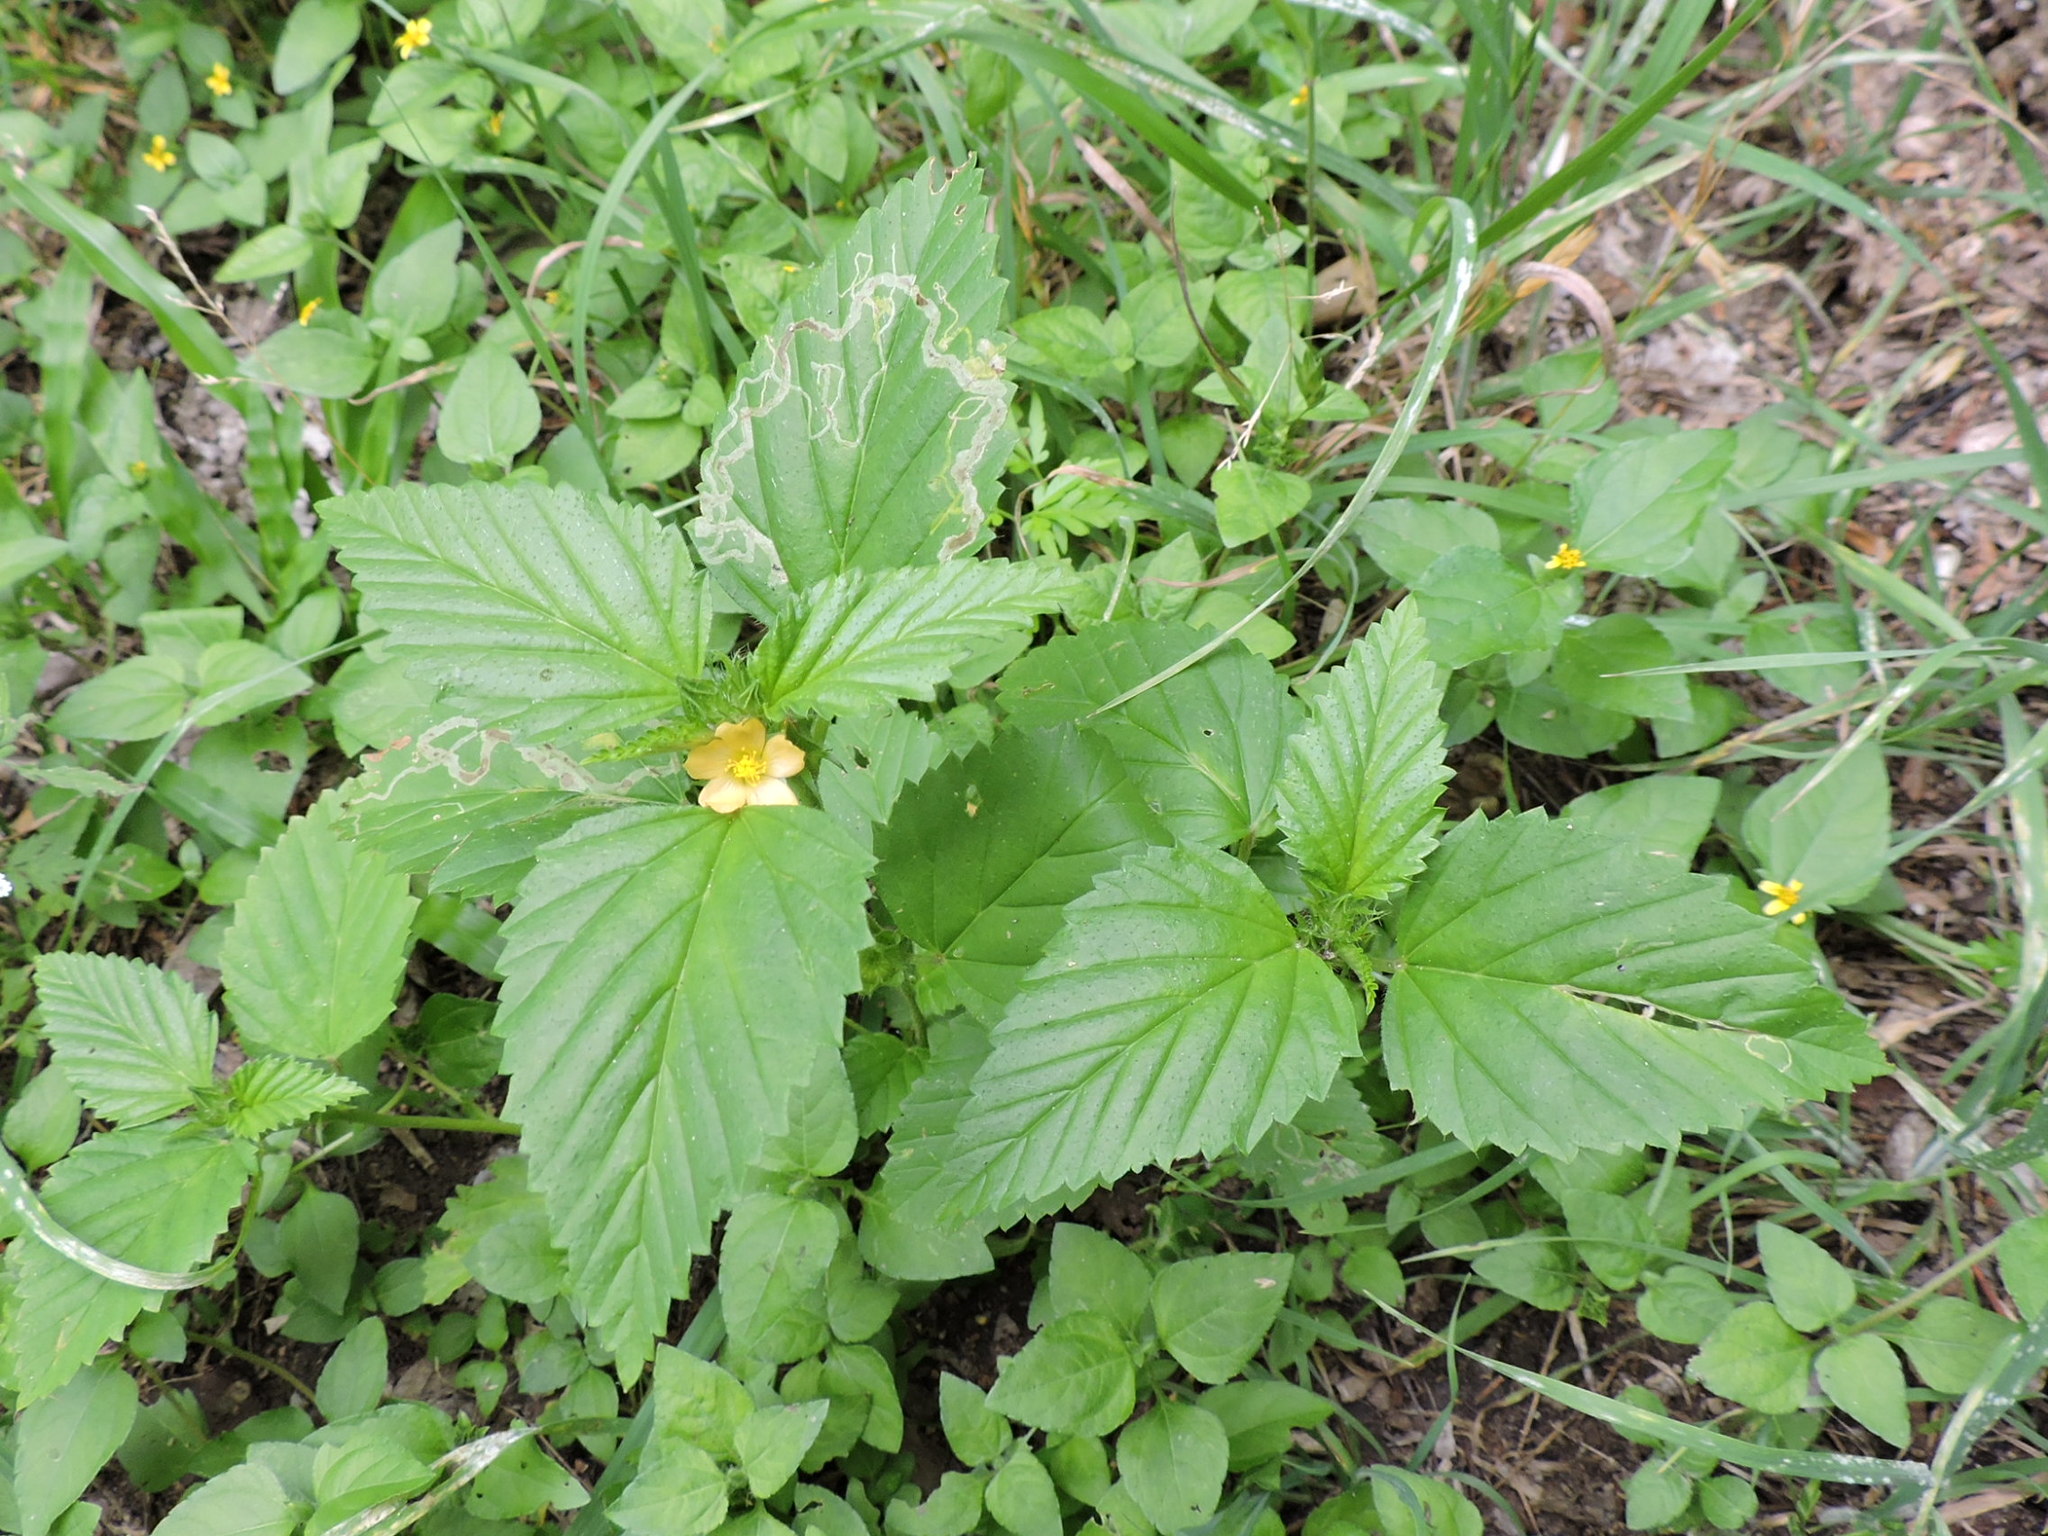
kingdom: Plantae
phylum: Tracheophyta
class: Magnoliopsida
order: Malvales
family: Malvaceae
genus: Malvastrum
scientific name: Malvastrum coromandelianum
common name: Threelobe false mallow
